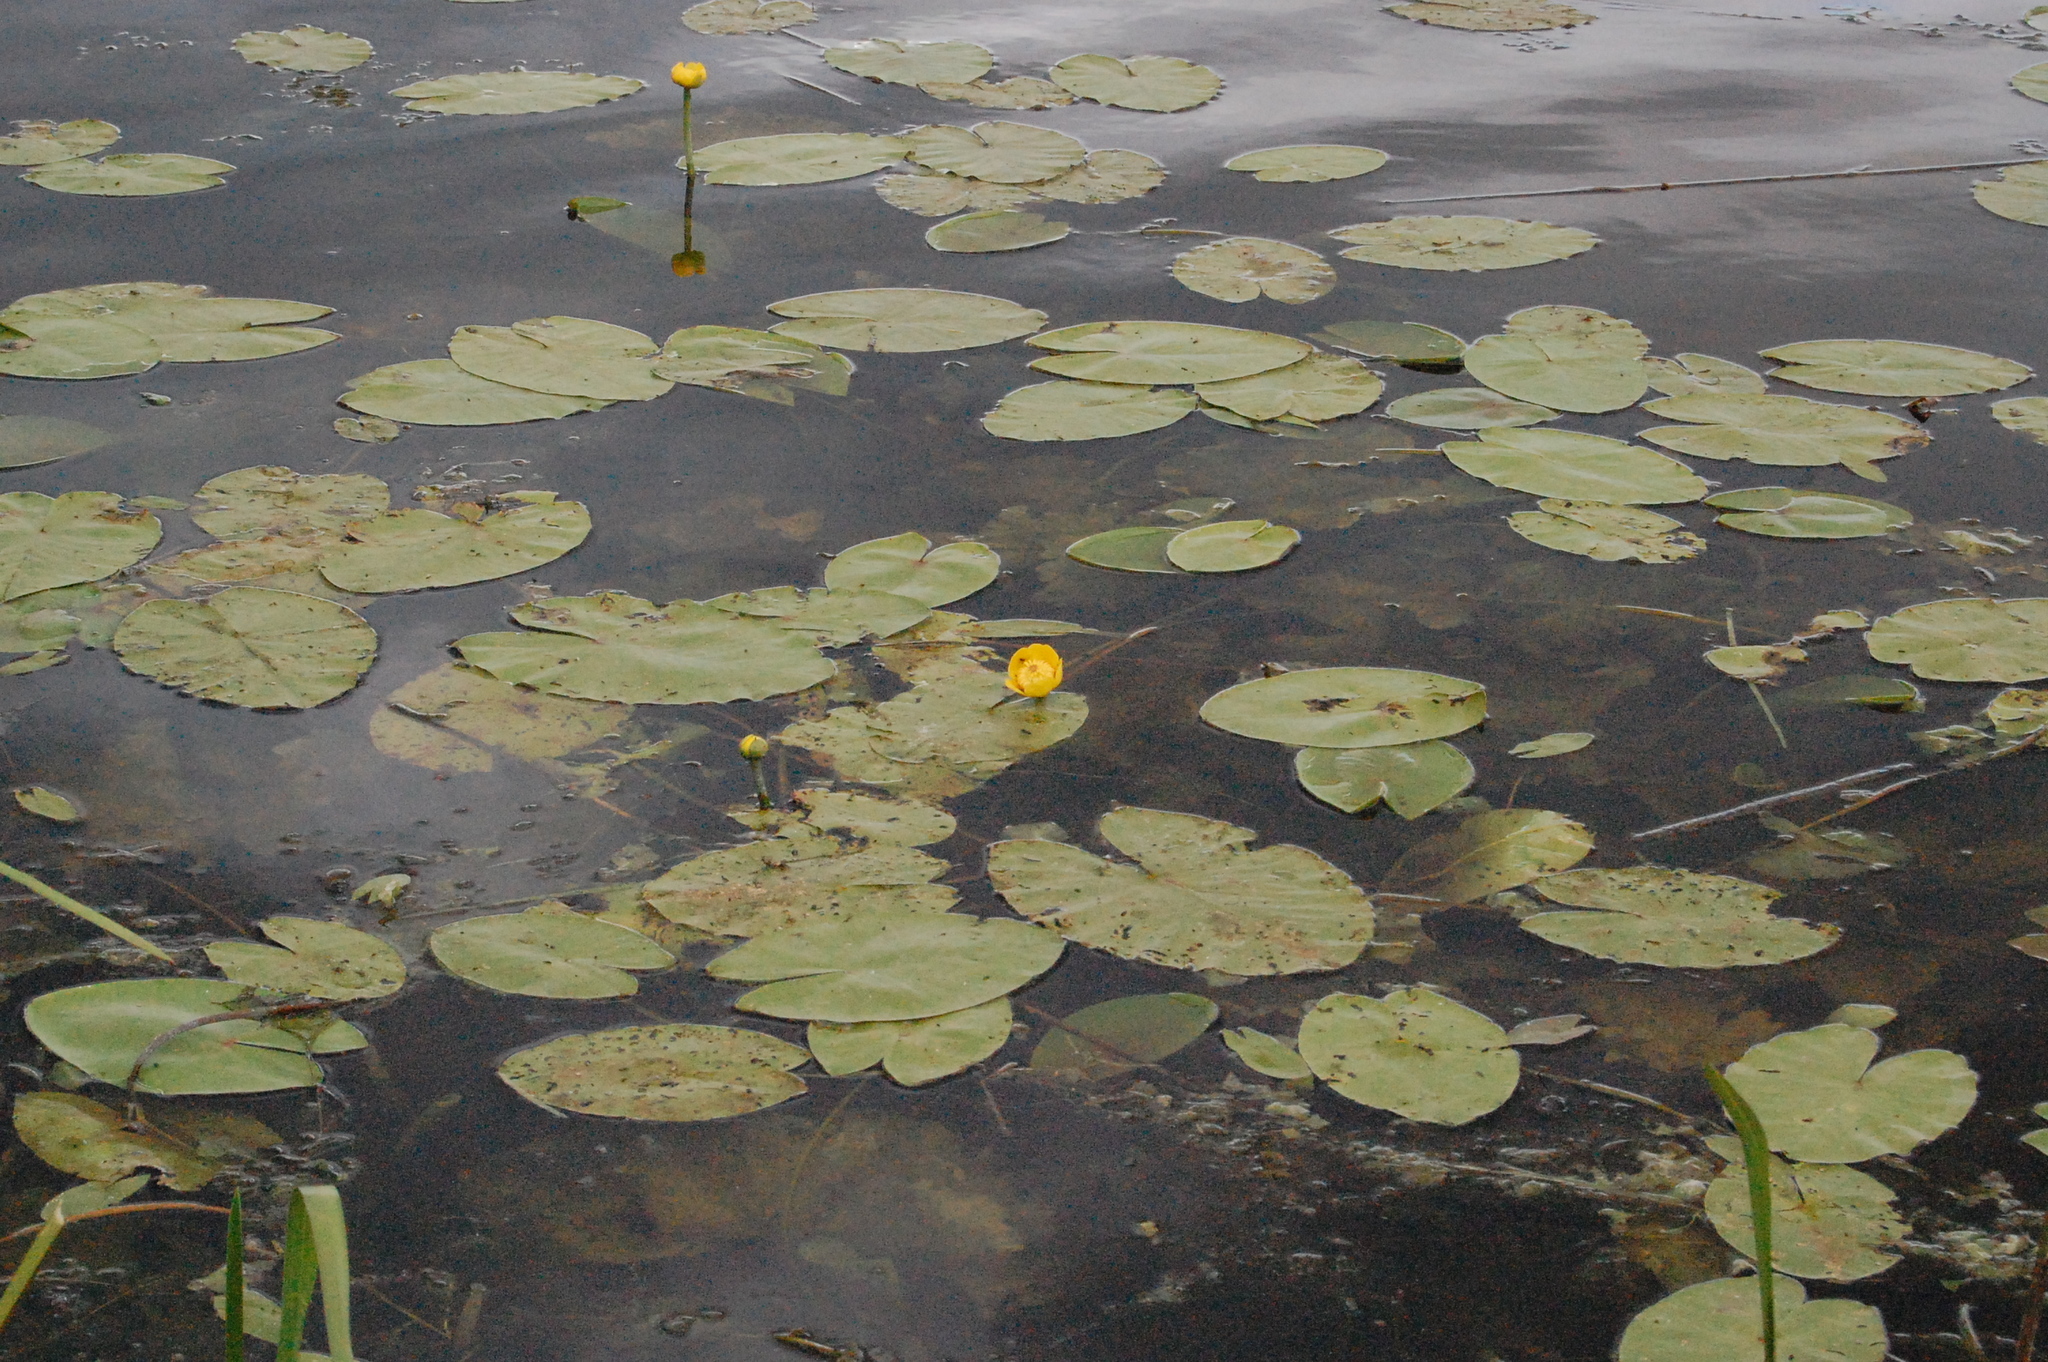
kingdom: Plantae
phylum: Tracheophyta
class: Magnoliopsida
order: Nymphaeales
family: Nymphaeaceae
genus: Nuphar
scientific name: Nuphar lutea
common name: Yellow water-lily
